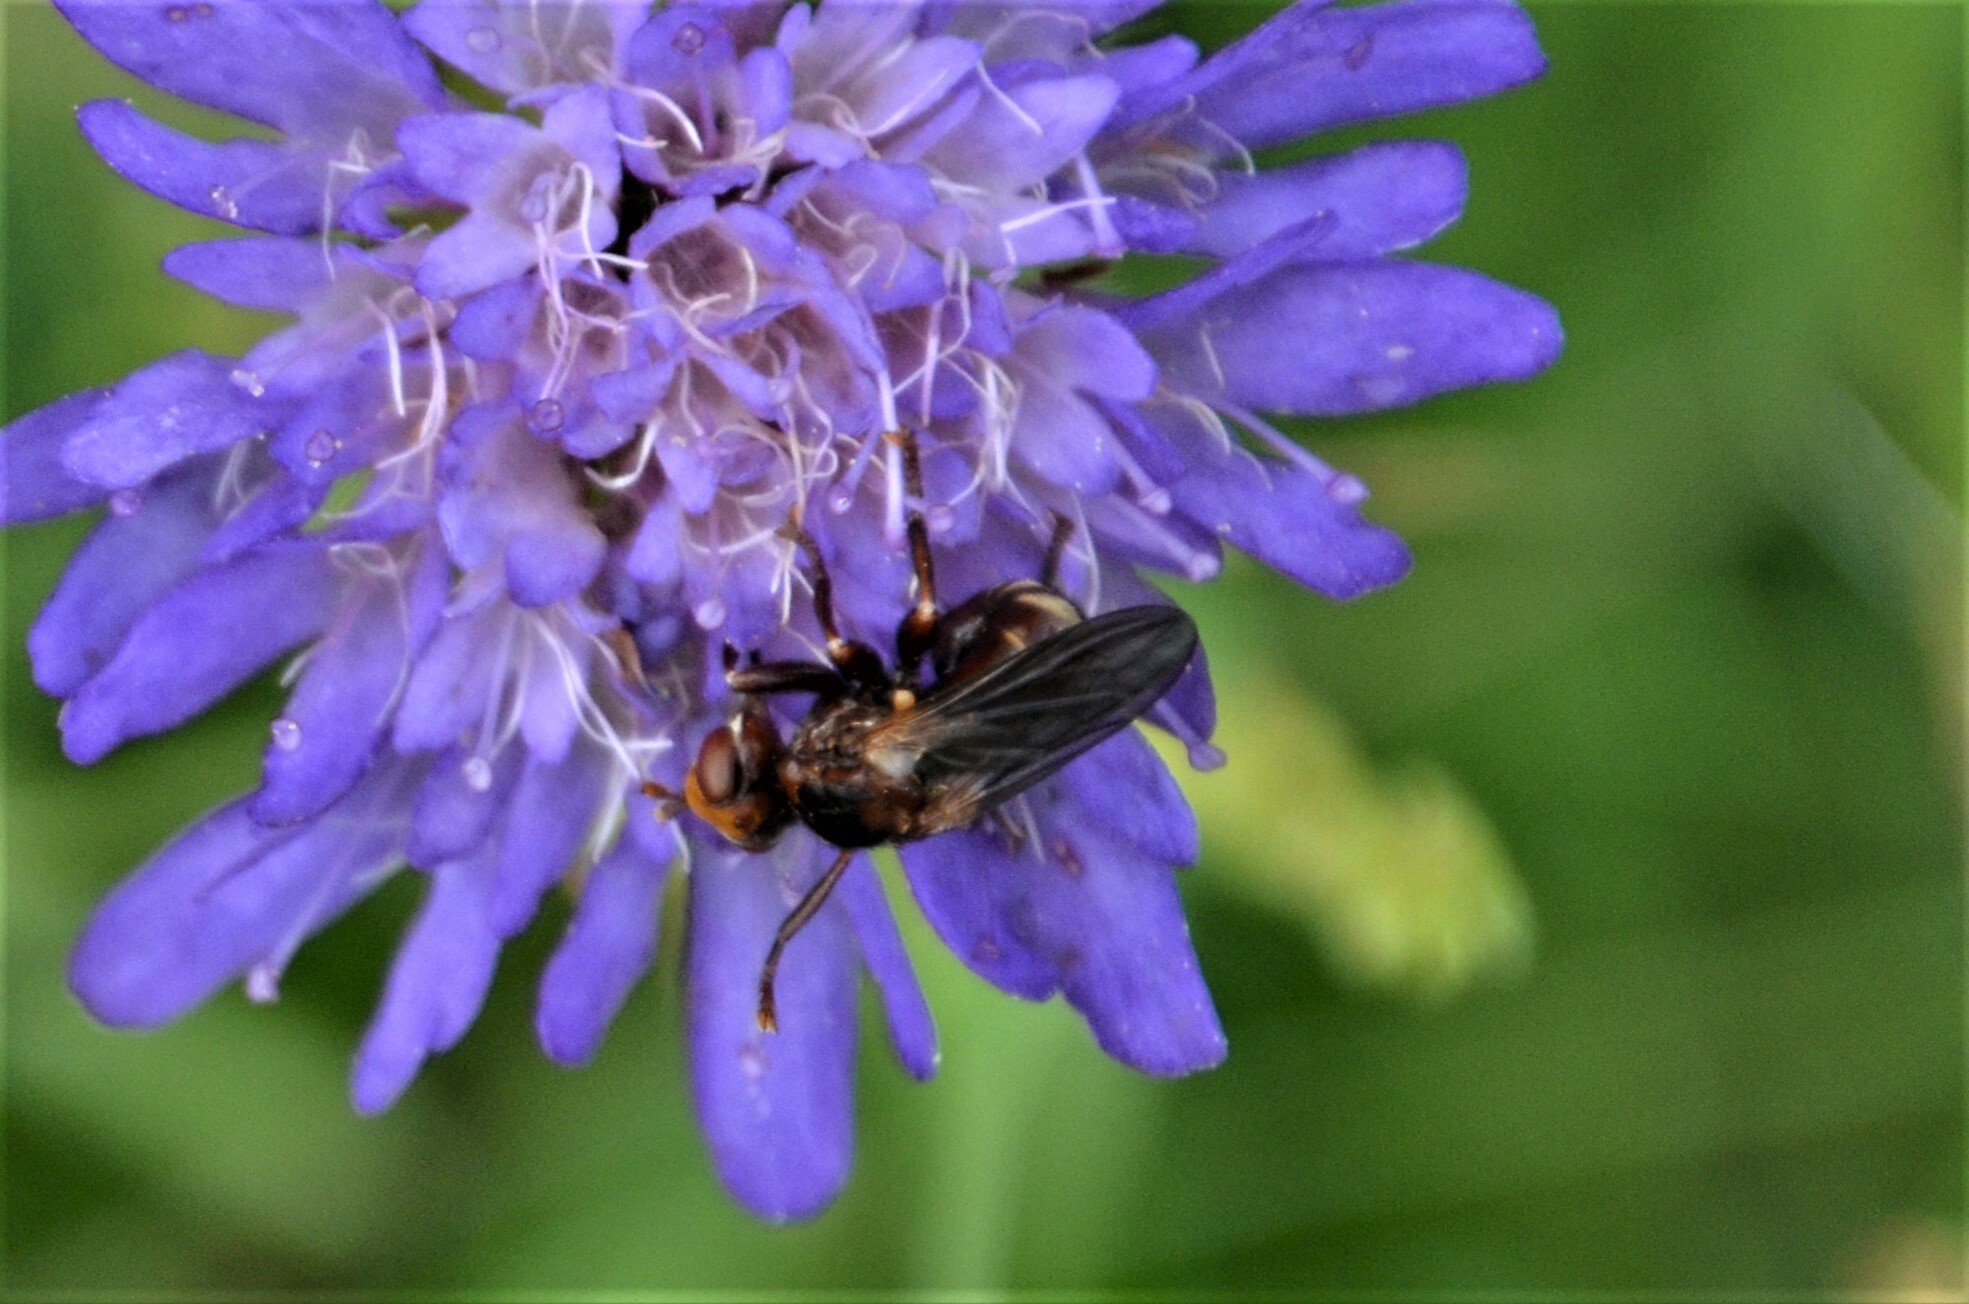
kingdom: Animalia
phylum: Arthropoda
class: Insecta
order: Diptera
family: Conopidae
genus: Sicus
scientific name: Sicus ferrugineus
